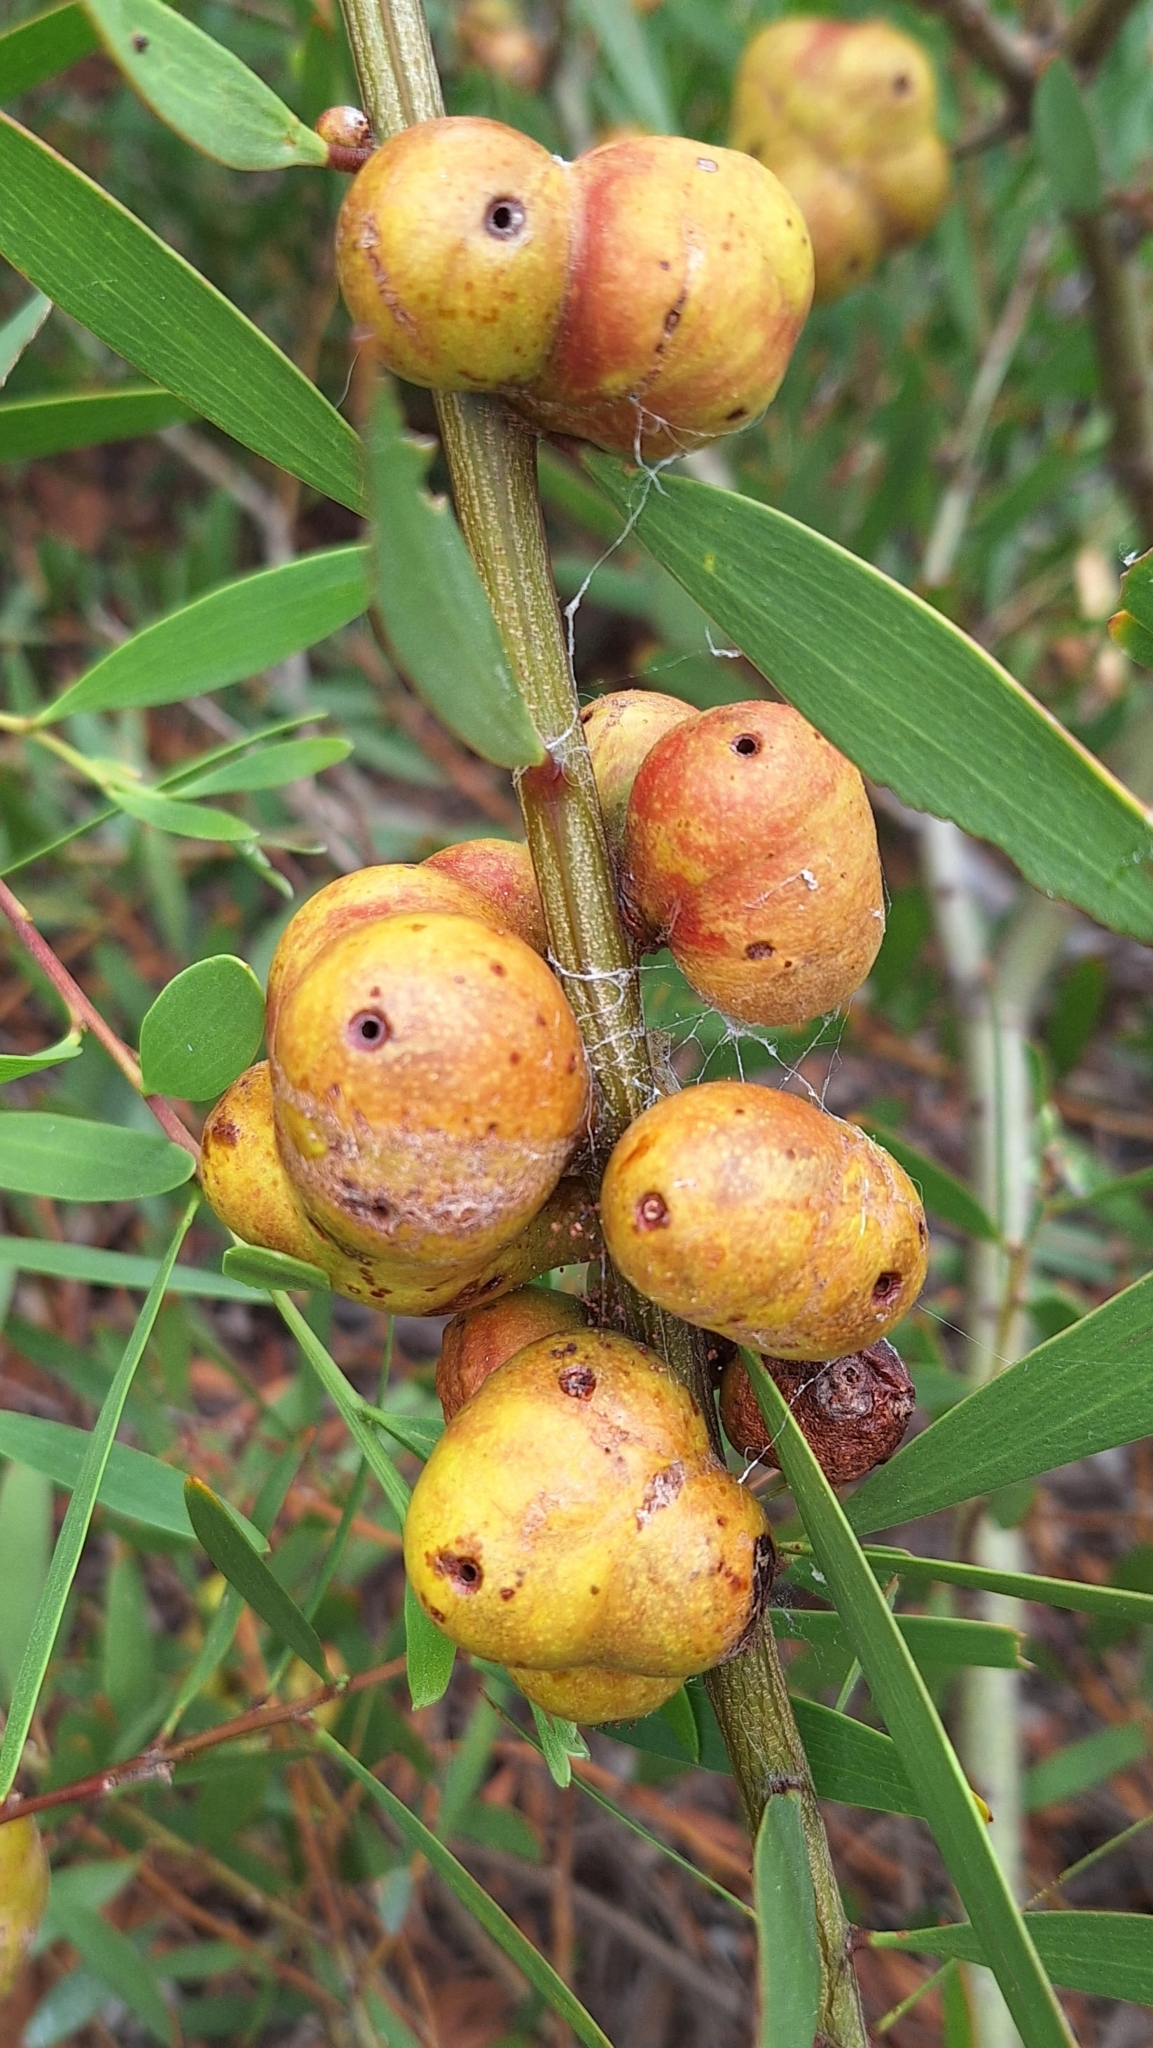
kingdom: Animalia
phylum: Arthropoda
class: Insecta
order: Hymenoptera
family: Pteromalidae
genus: Trichilogaster
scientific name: Trichilogaster acaciaelongifoliae
